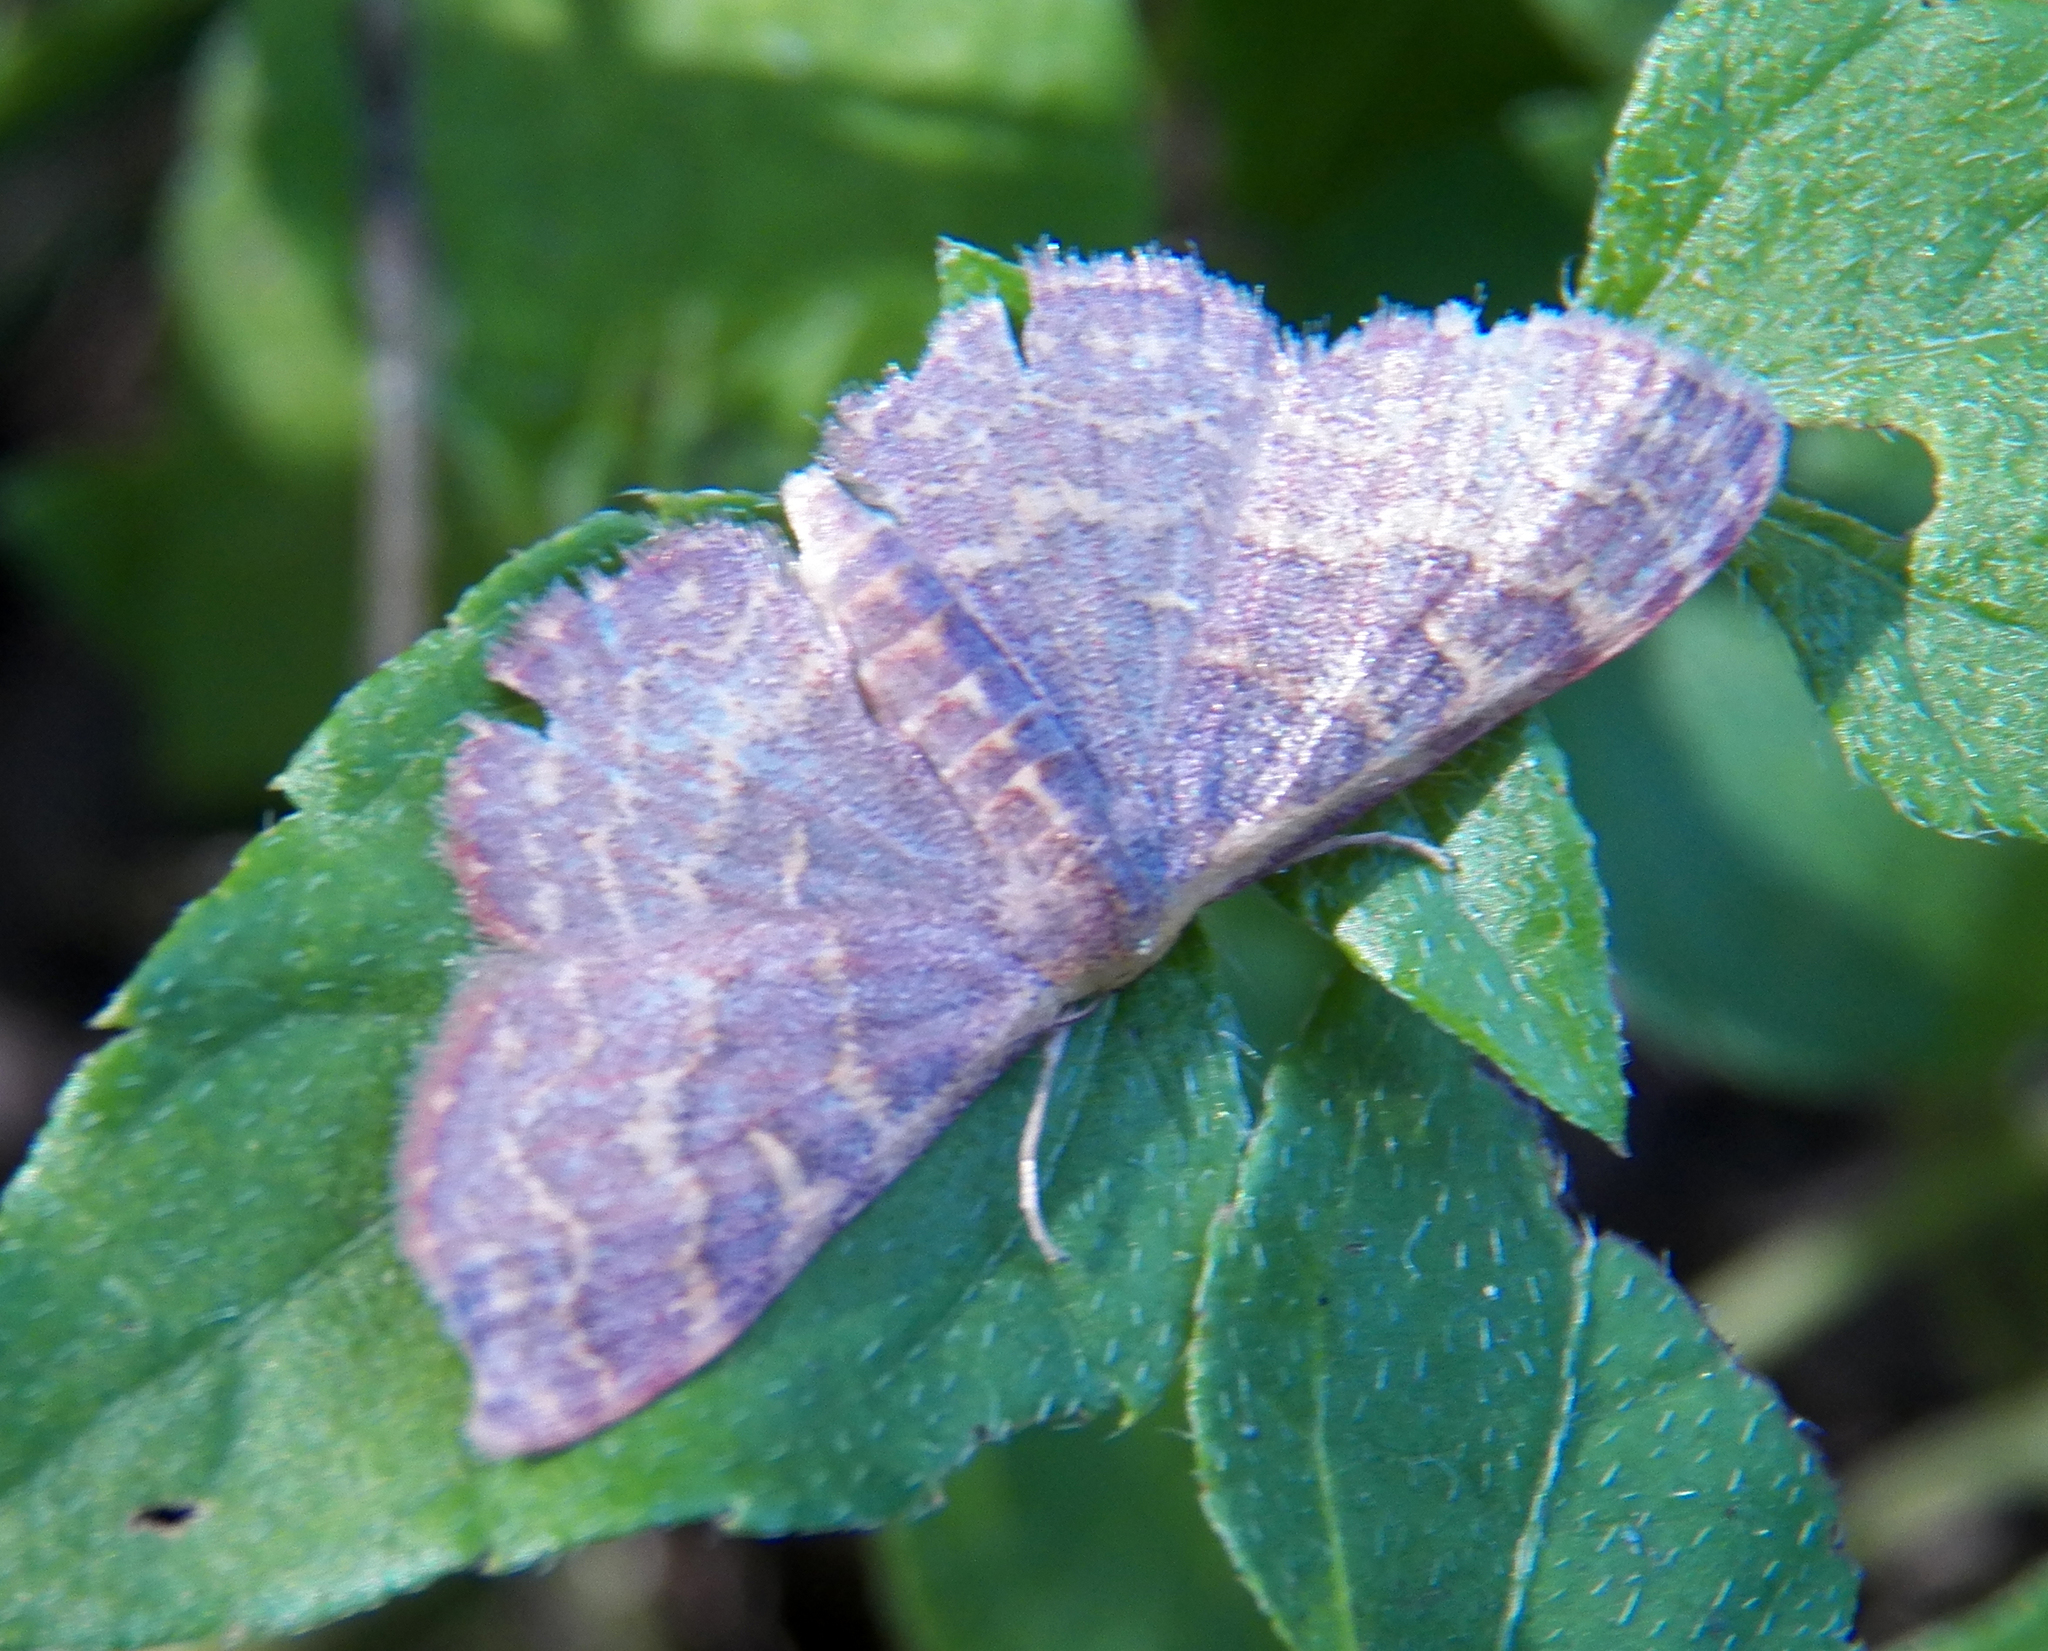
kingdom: Animalia
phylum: Arthropoda
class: Insecta
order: Lepidoptera
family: Geometridae
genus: Leptostales
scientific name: Leptostales pannaria
